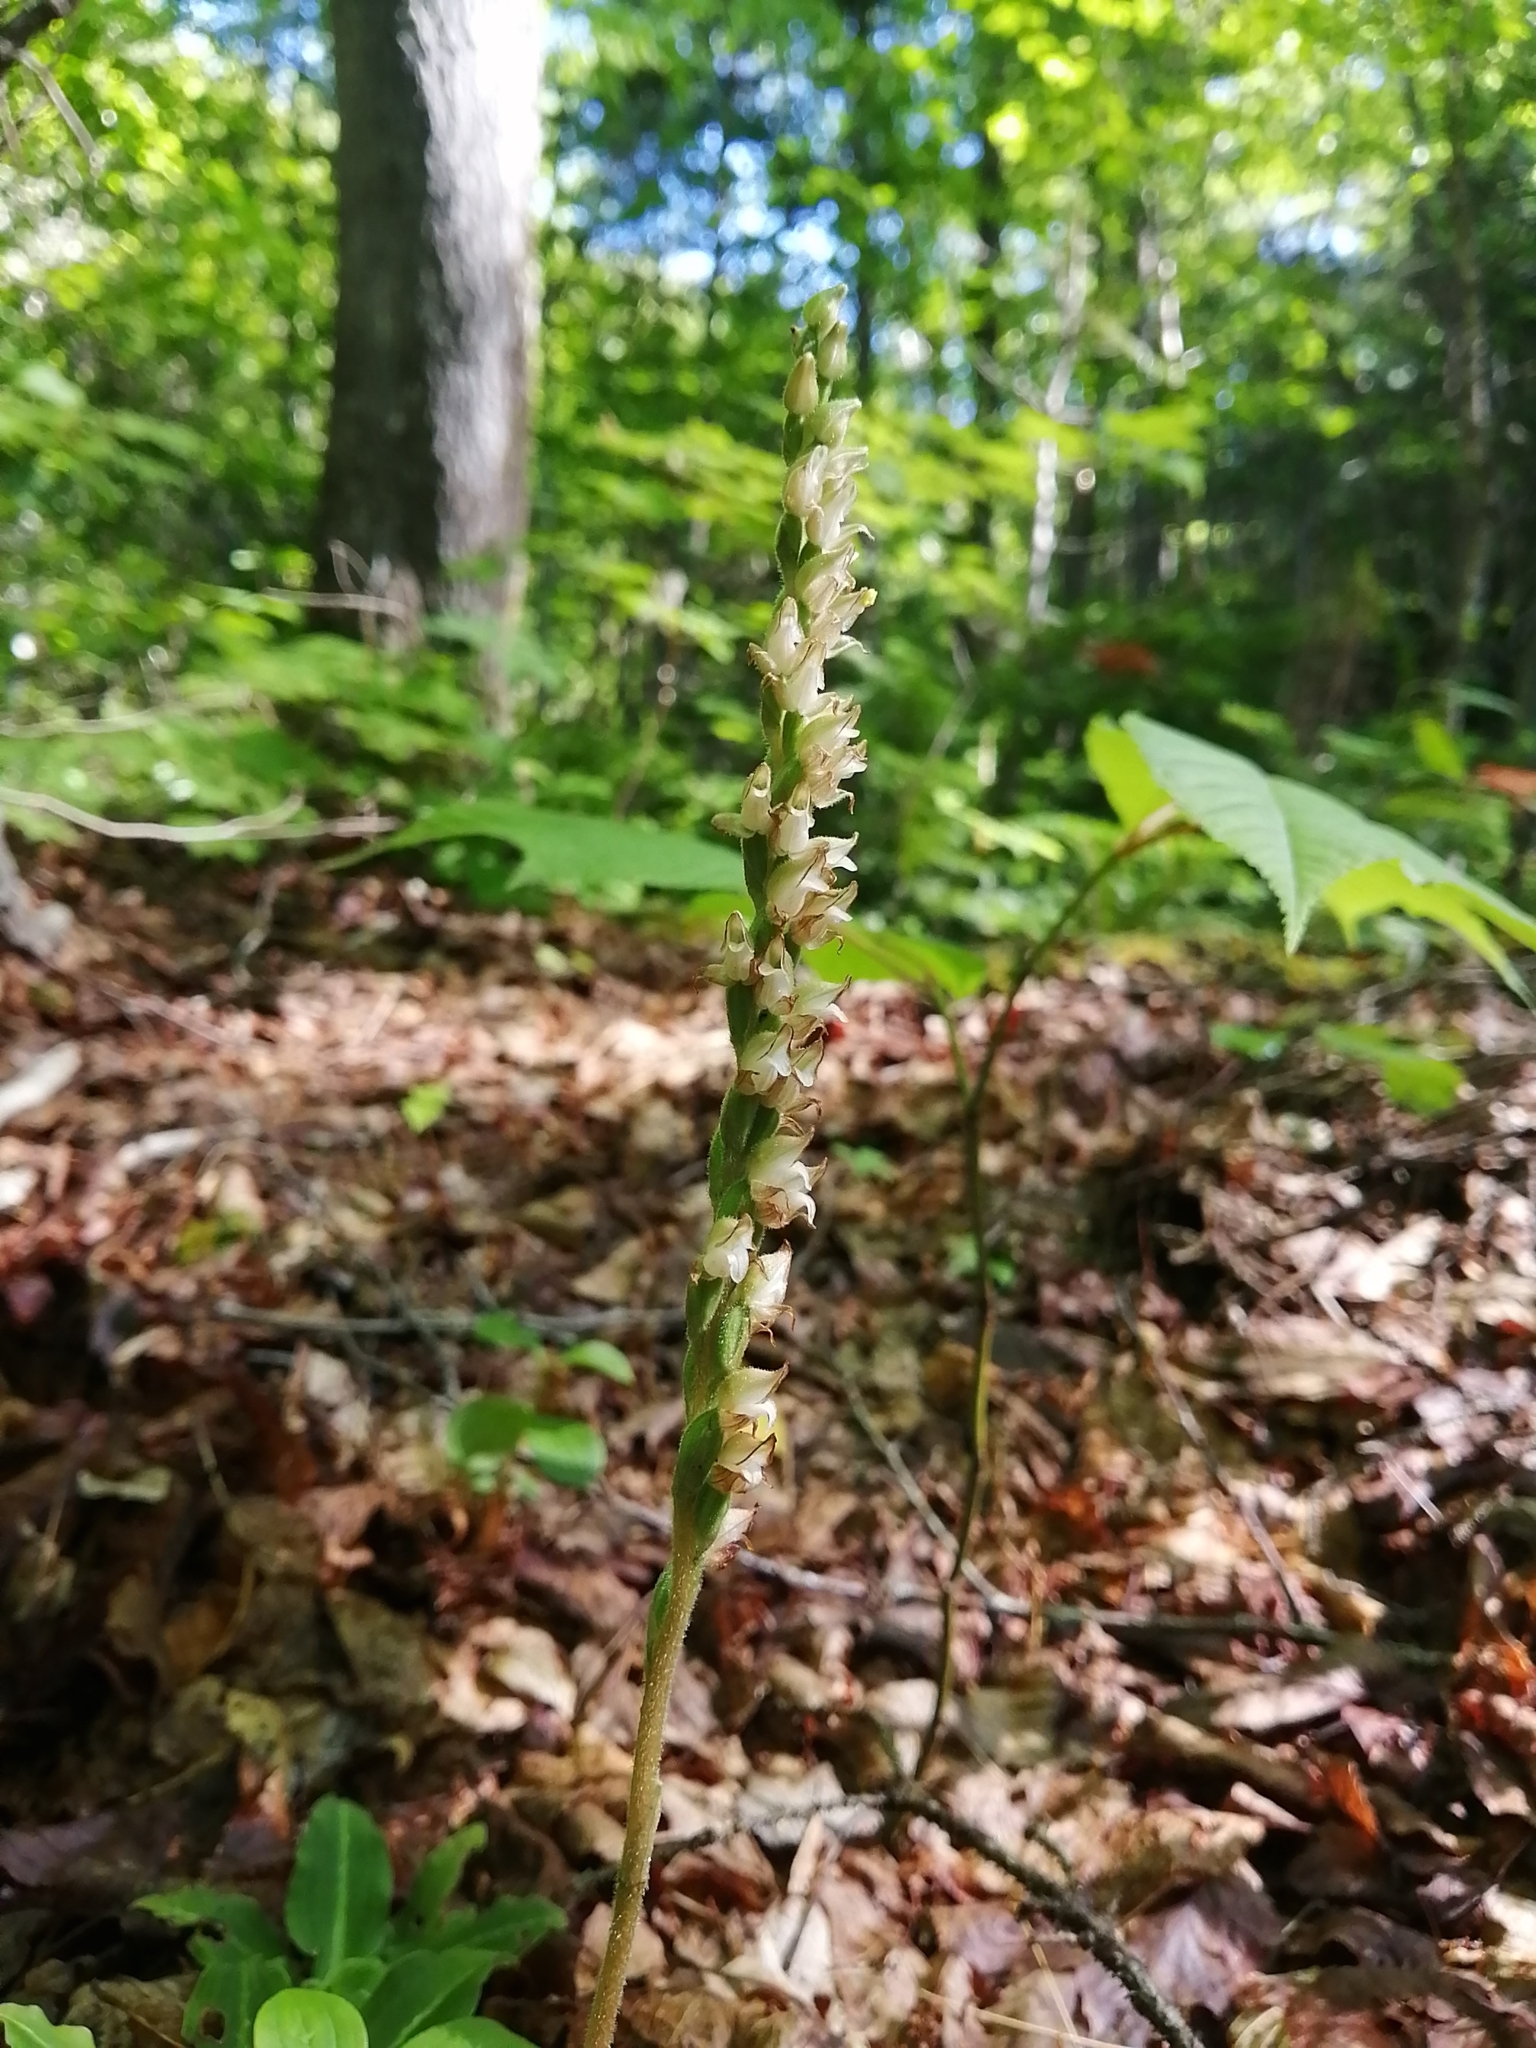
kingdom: Plantae
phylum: Tracheophyta
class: Liliopsida
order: Asparagales
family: Orchidaceae
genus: Goodyera
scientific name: Goodyera oblongifolia
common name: Giant rattlesnake-plantain
